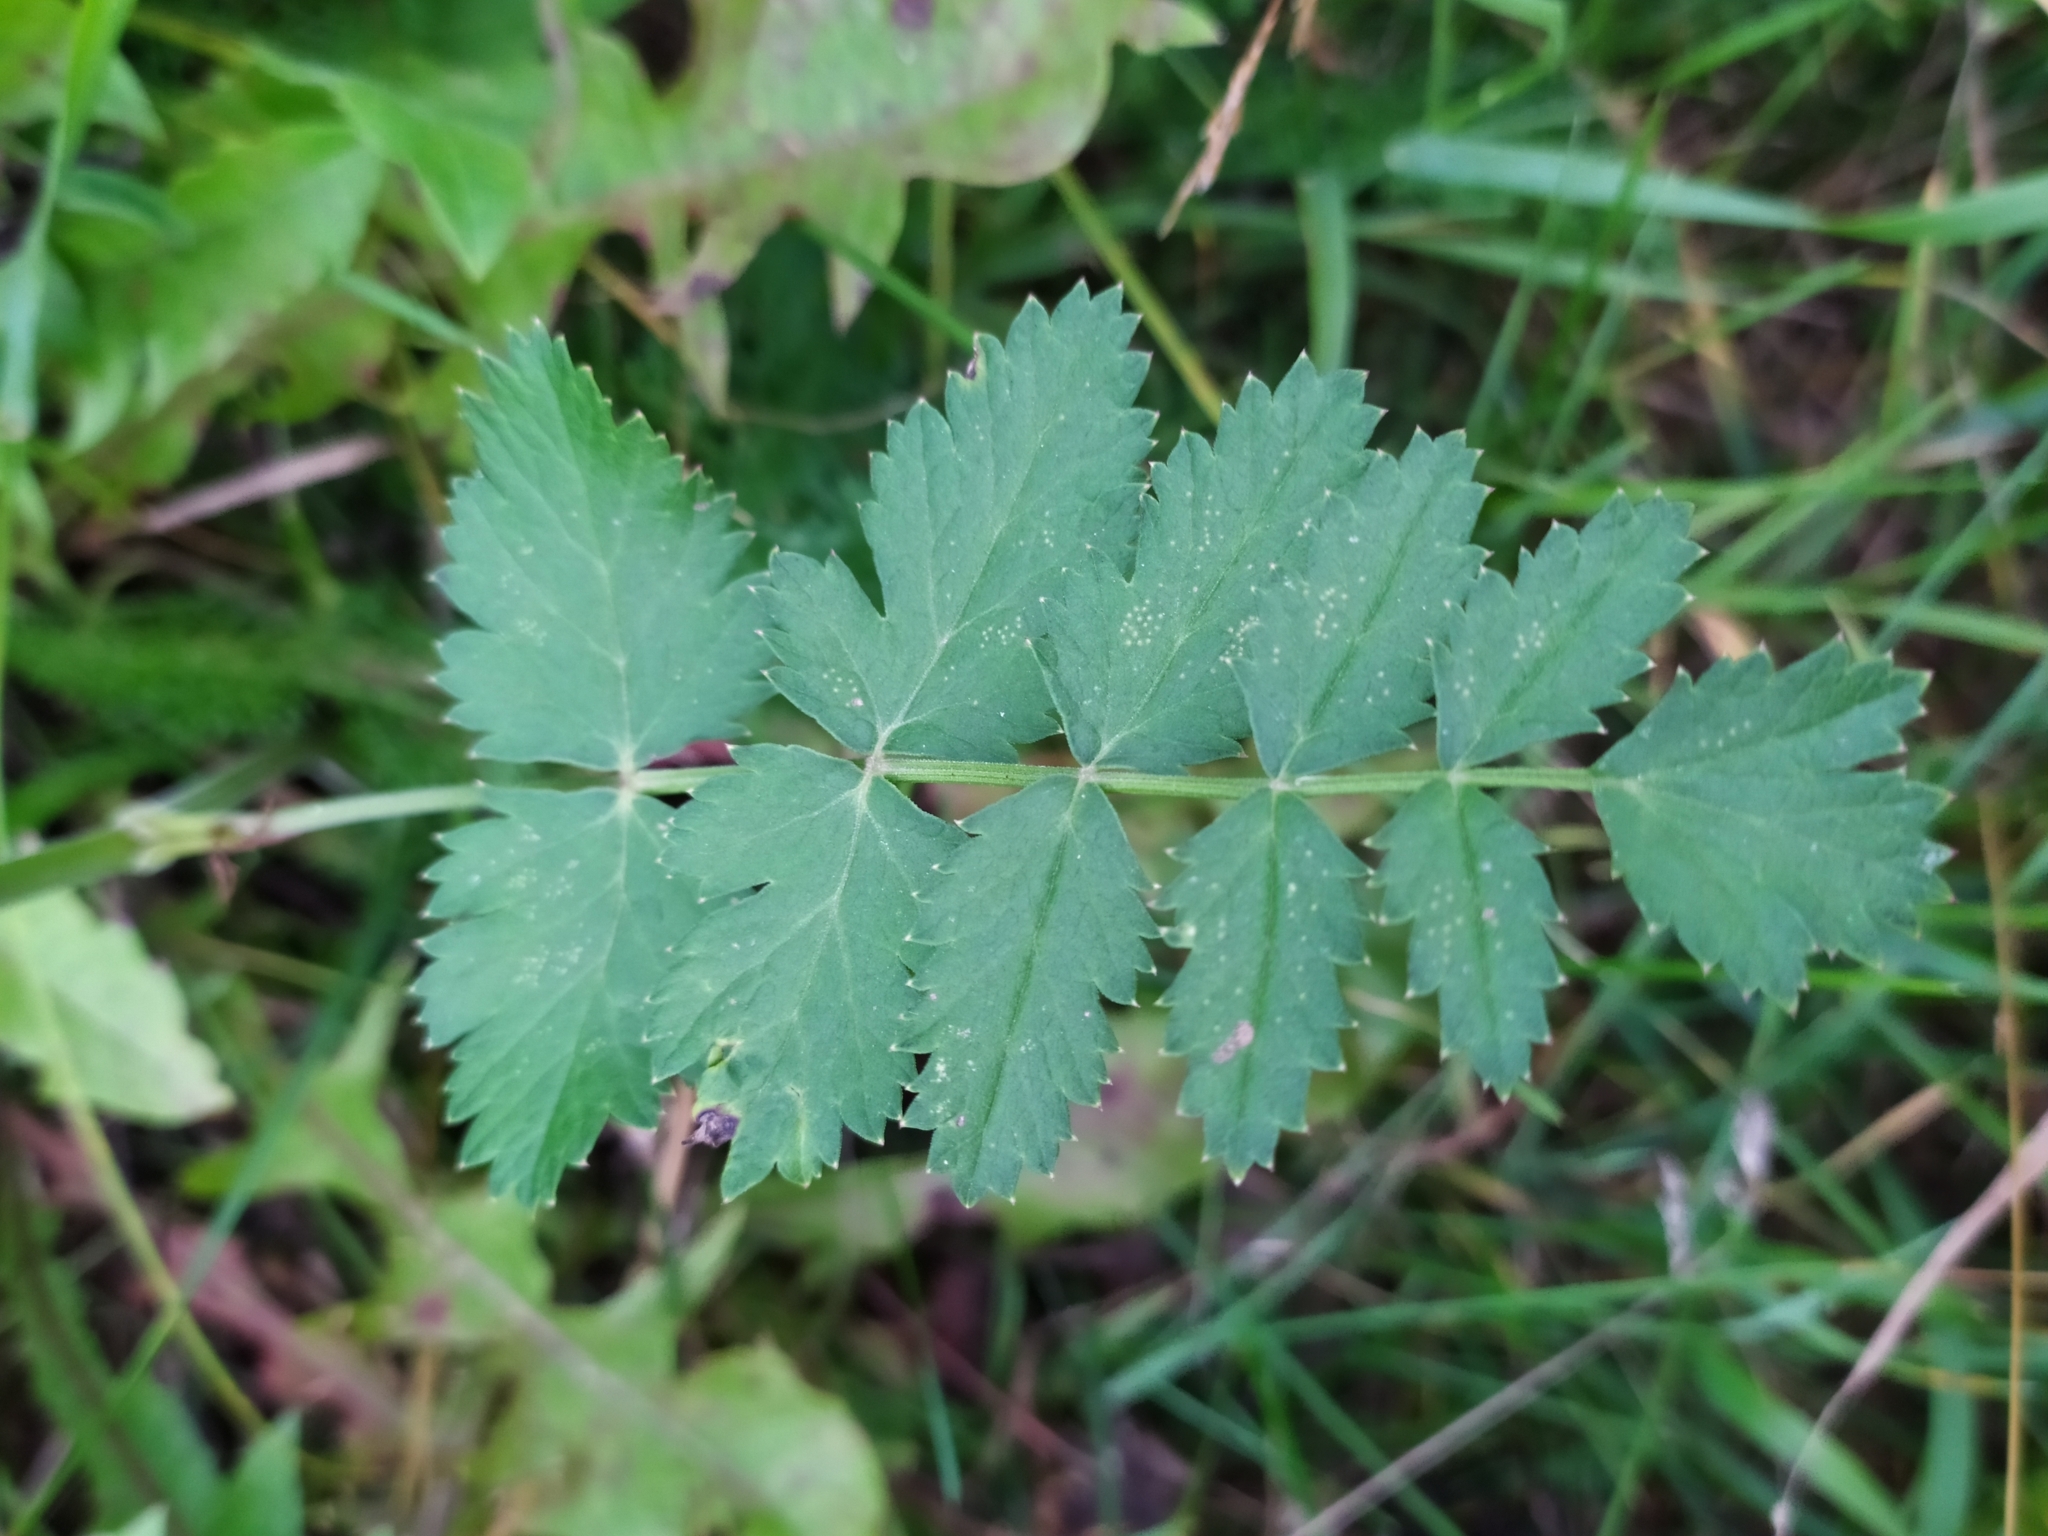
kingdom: Plantae
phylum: Tracheophyta
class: Magnoliopsida
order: Apiales
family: Apiaceae
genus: Pimpinella
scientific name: Pimpinella saxifraga
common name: Burnet-saxifrage
